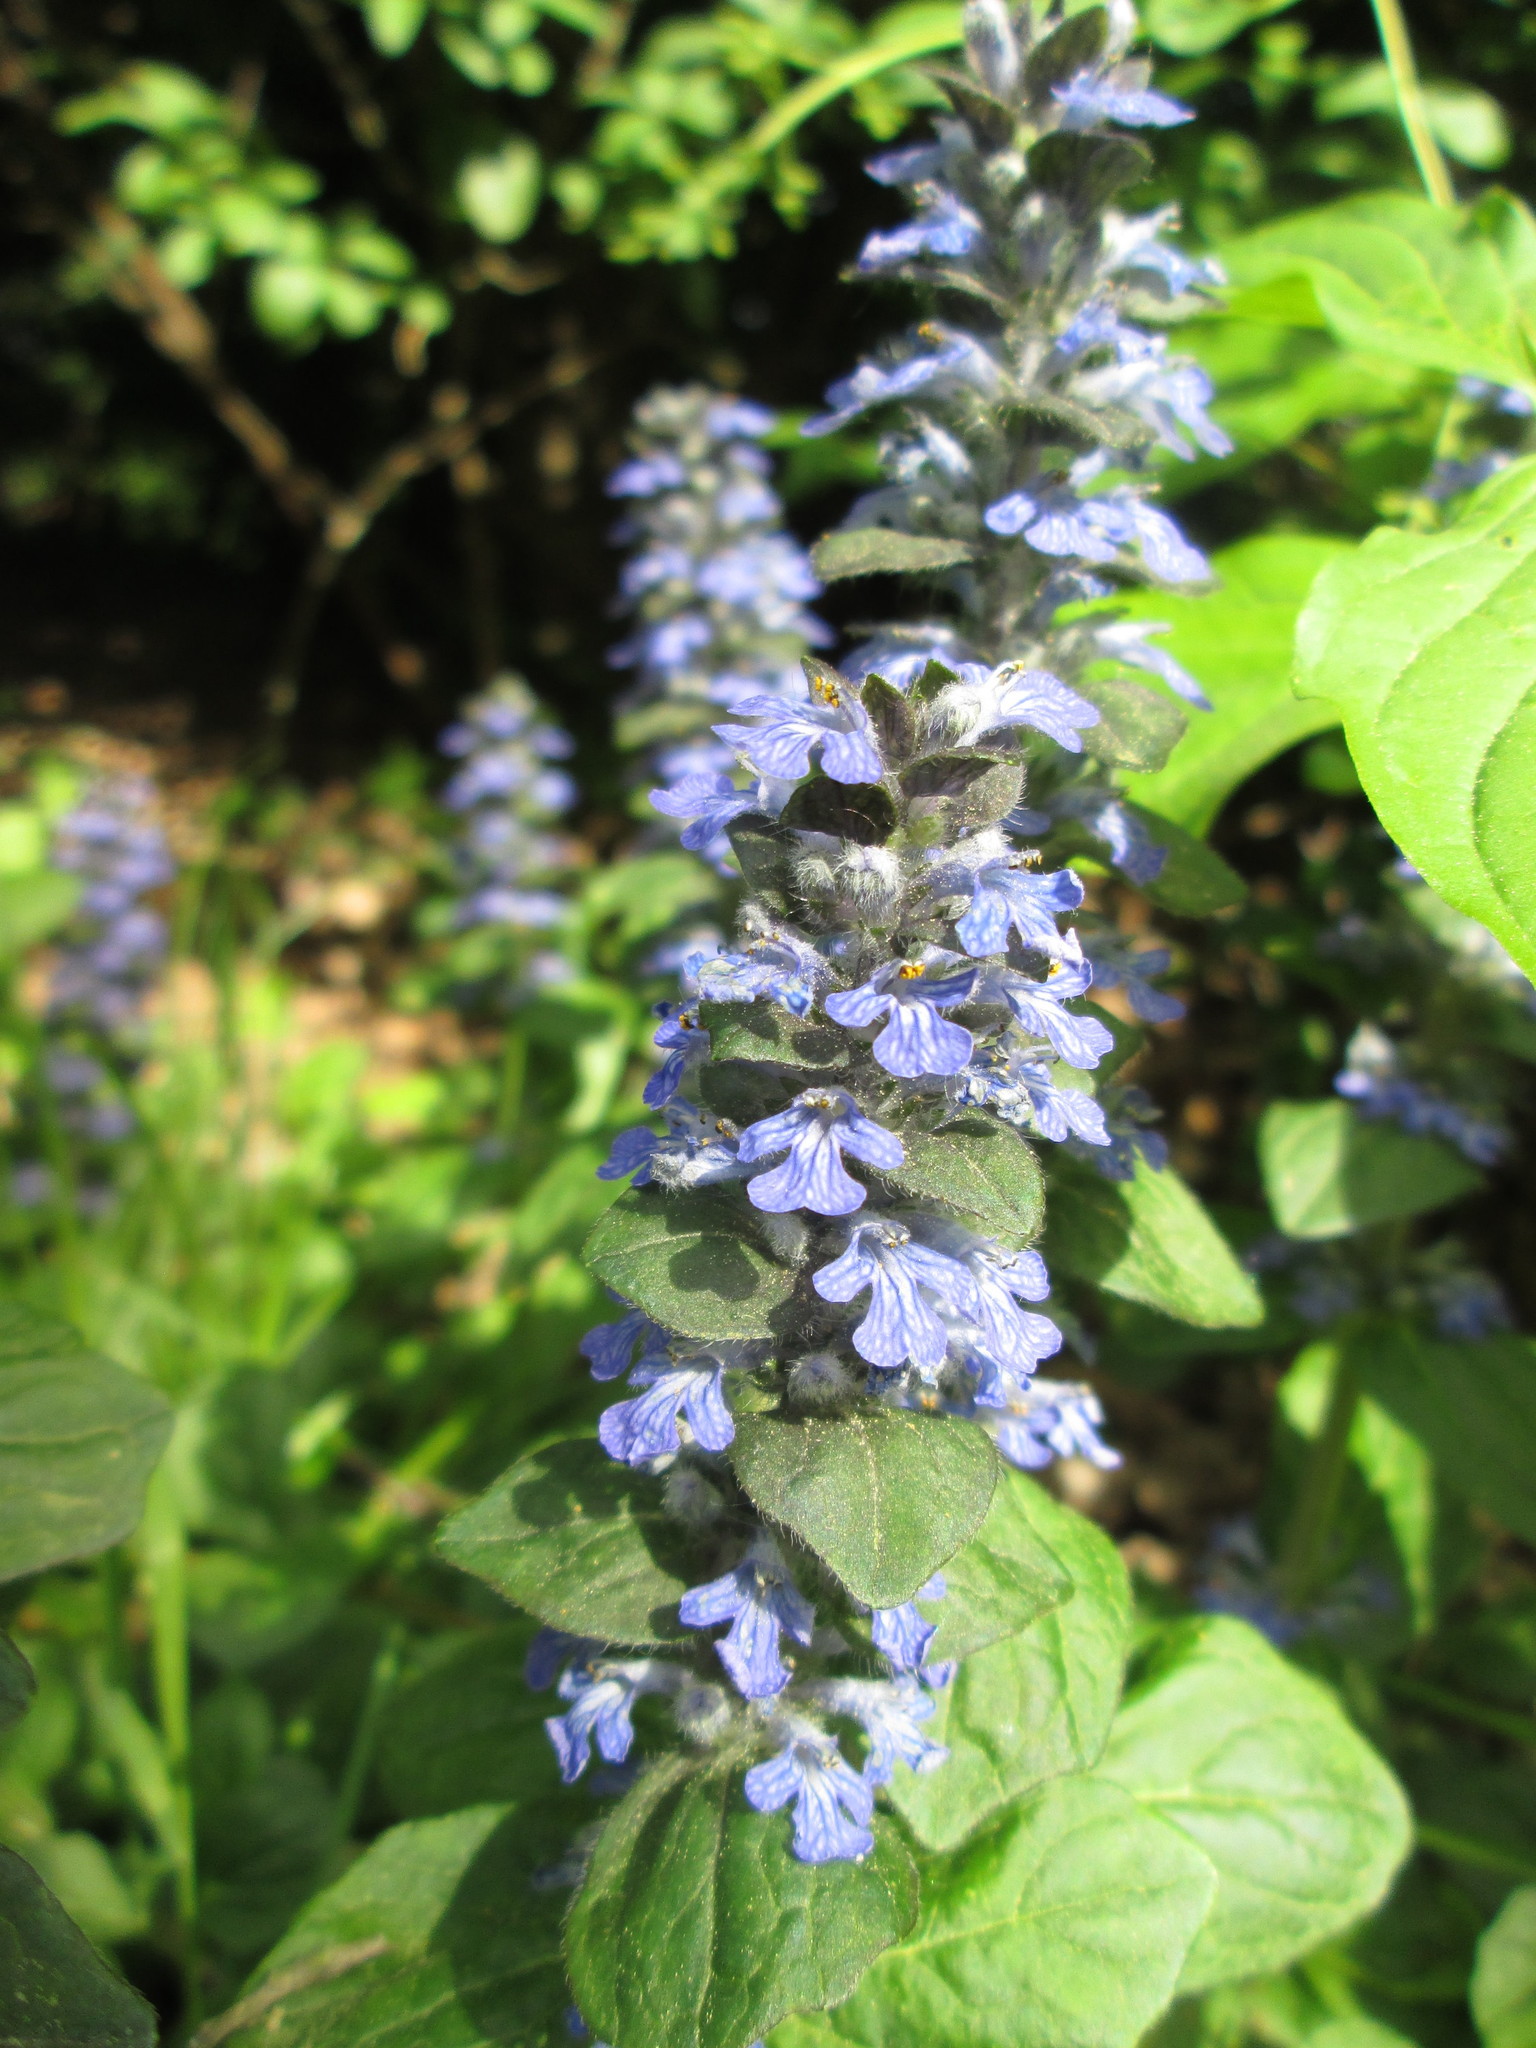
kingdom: Plantae
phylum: Tracheophyta
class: Magnoliopsida
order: Lamiales
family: Lamiaceae
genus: Ajuga
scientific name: Ajuga reptans
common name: Bugle
